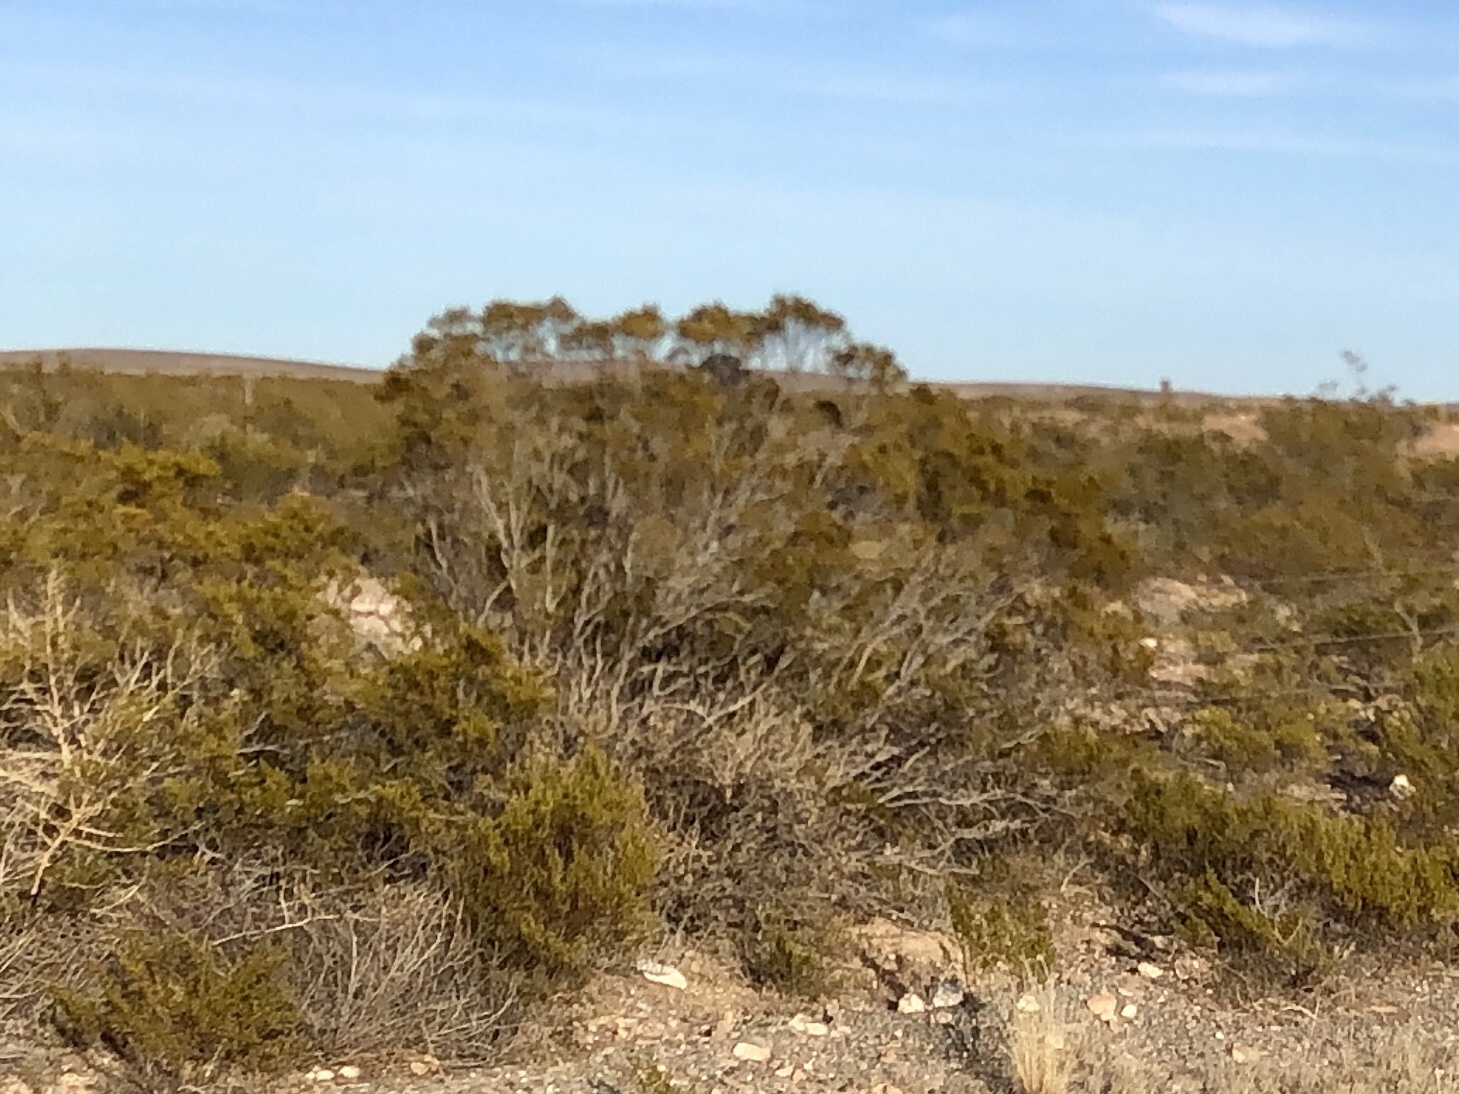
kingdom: Plantae
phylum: Tracheophyta
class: Magnoliopsida
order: Zygophyllales
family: Zygophyllaceae
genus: Larrea
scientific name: Larrea tridentata
